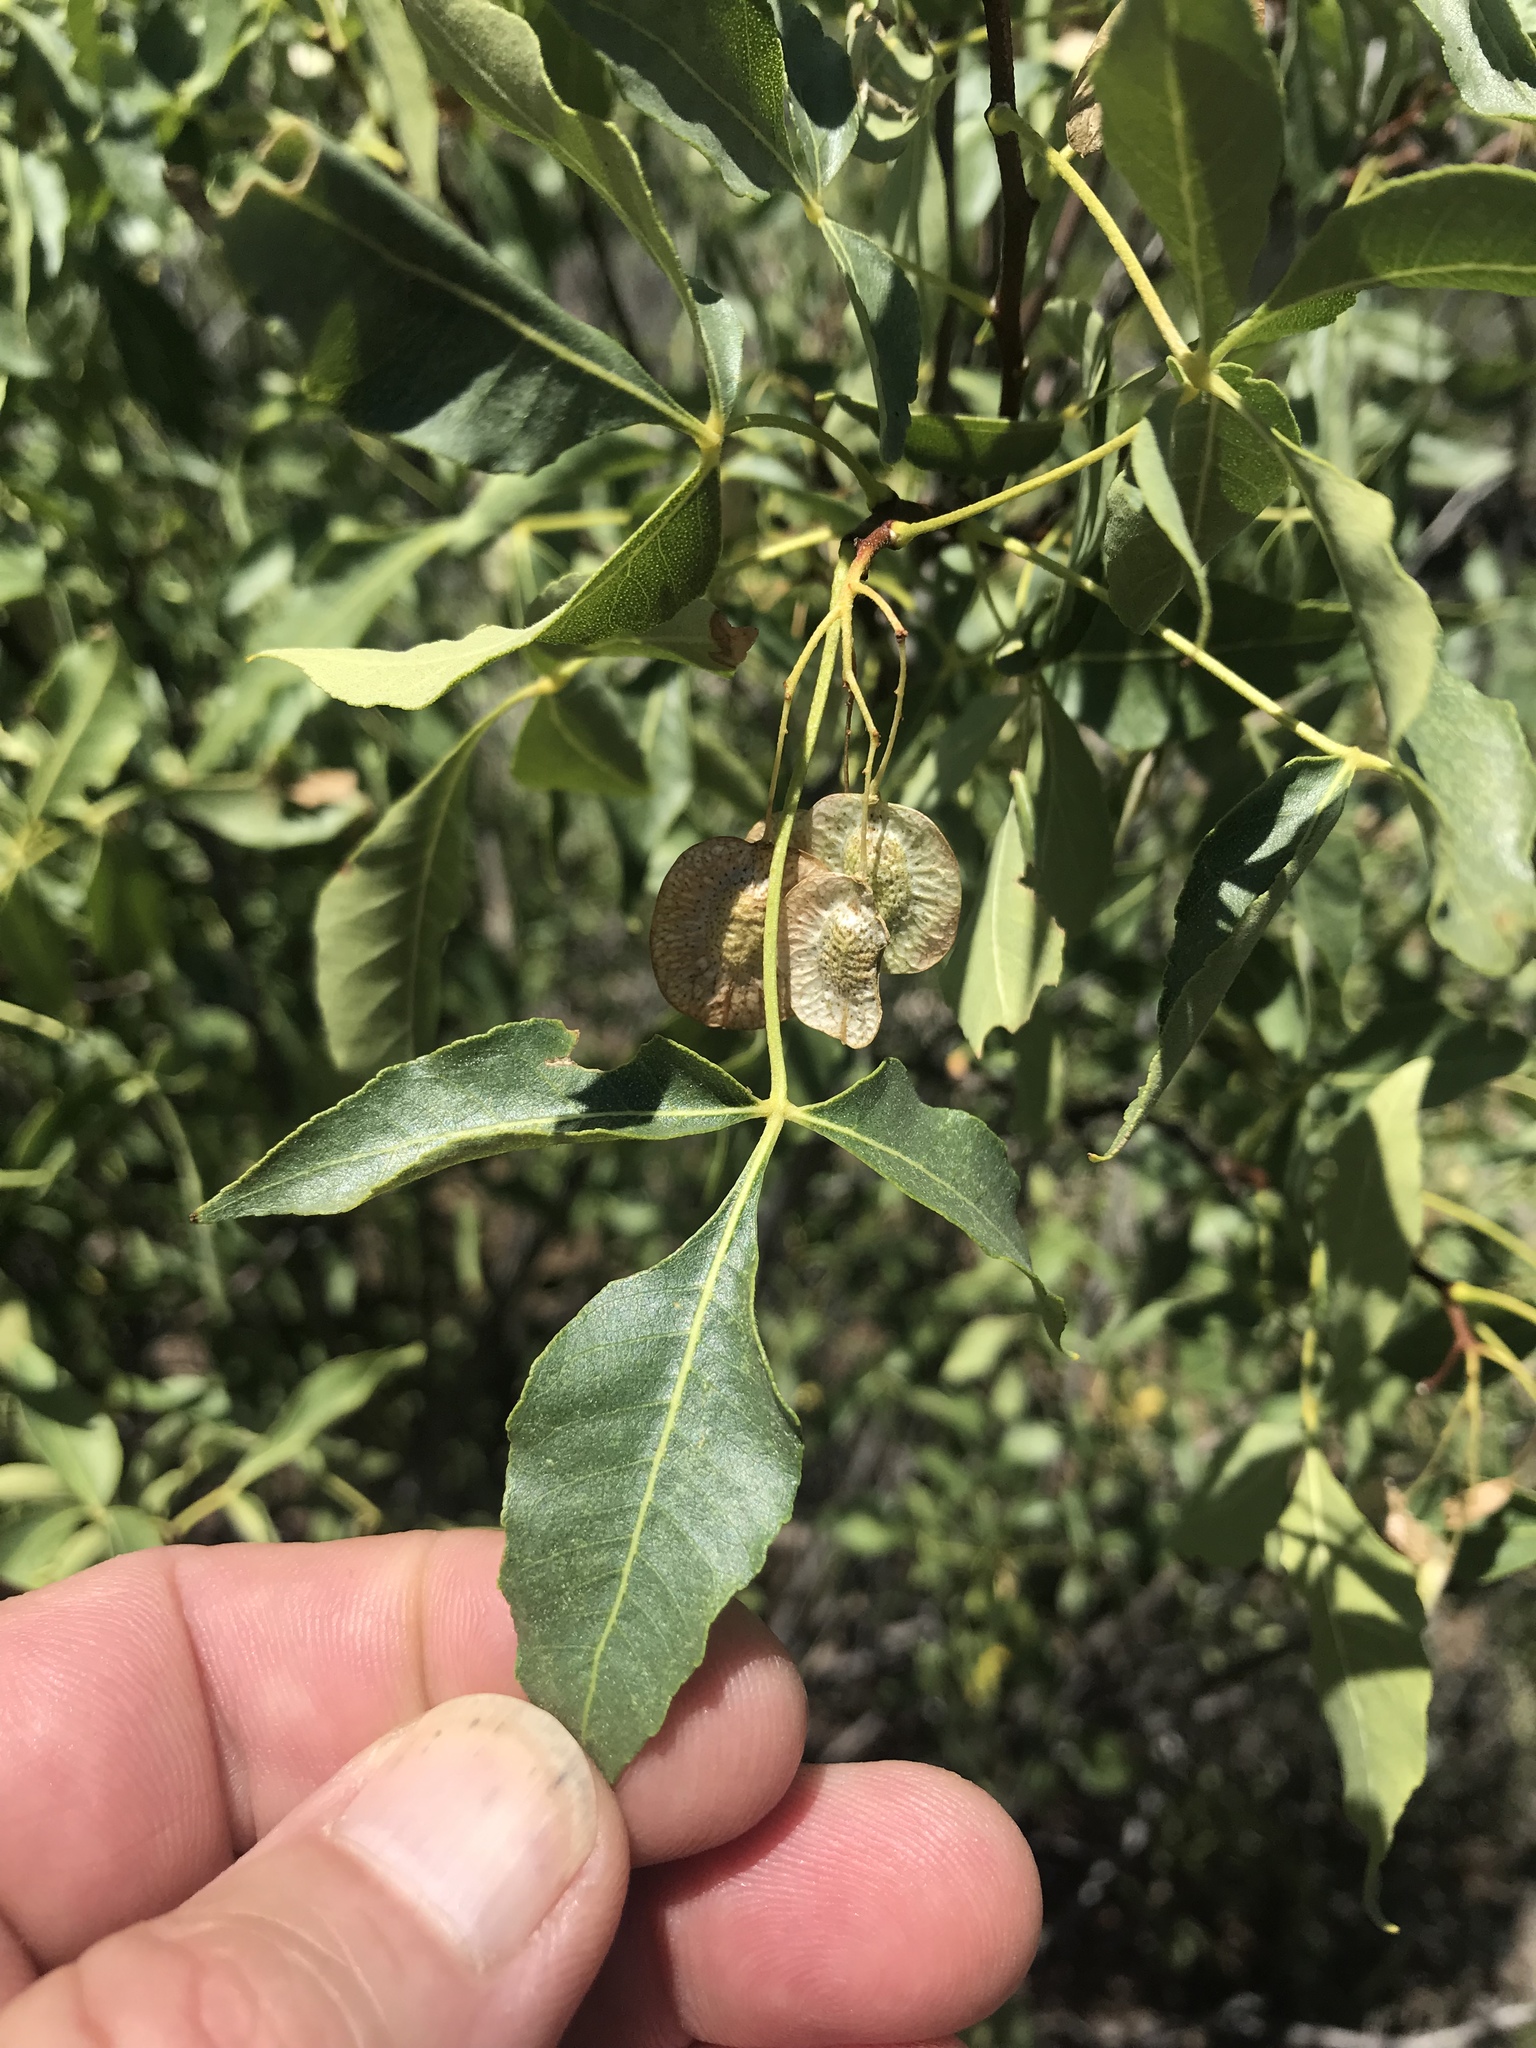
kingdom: Plantae
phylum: Tracheophyta
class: Magnoliopsida
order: Sapindales
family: Rutaceae
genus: Ptelea
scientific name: Ptelea trifoliata
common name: Common hop-tree
